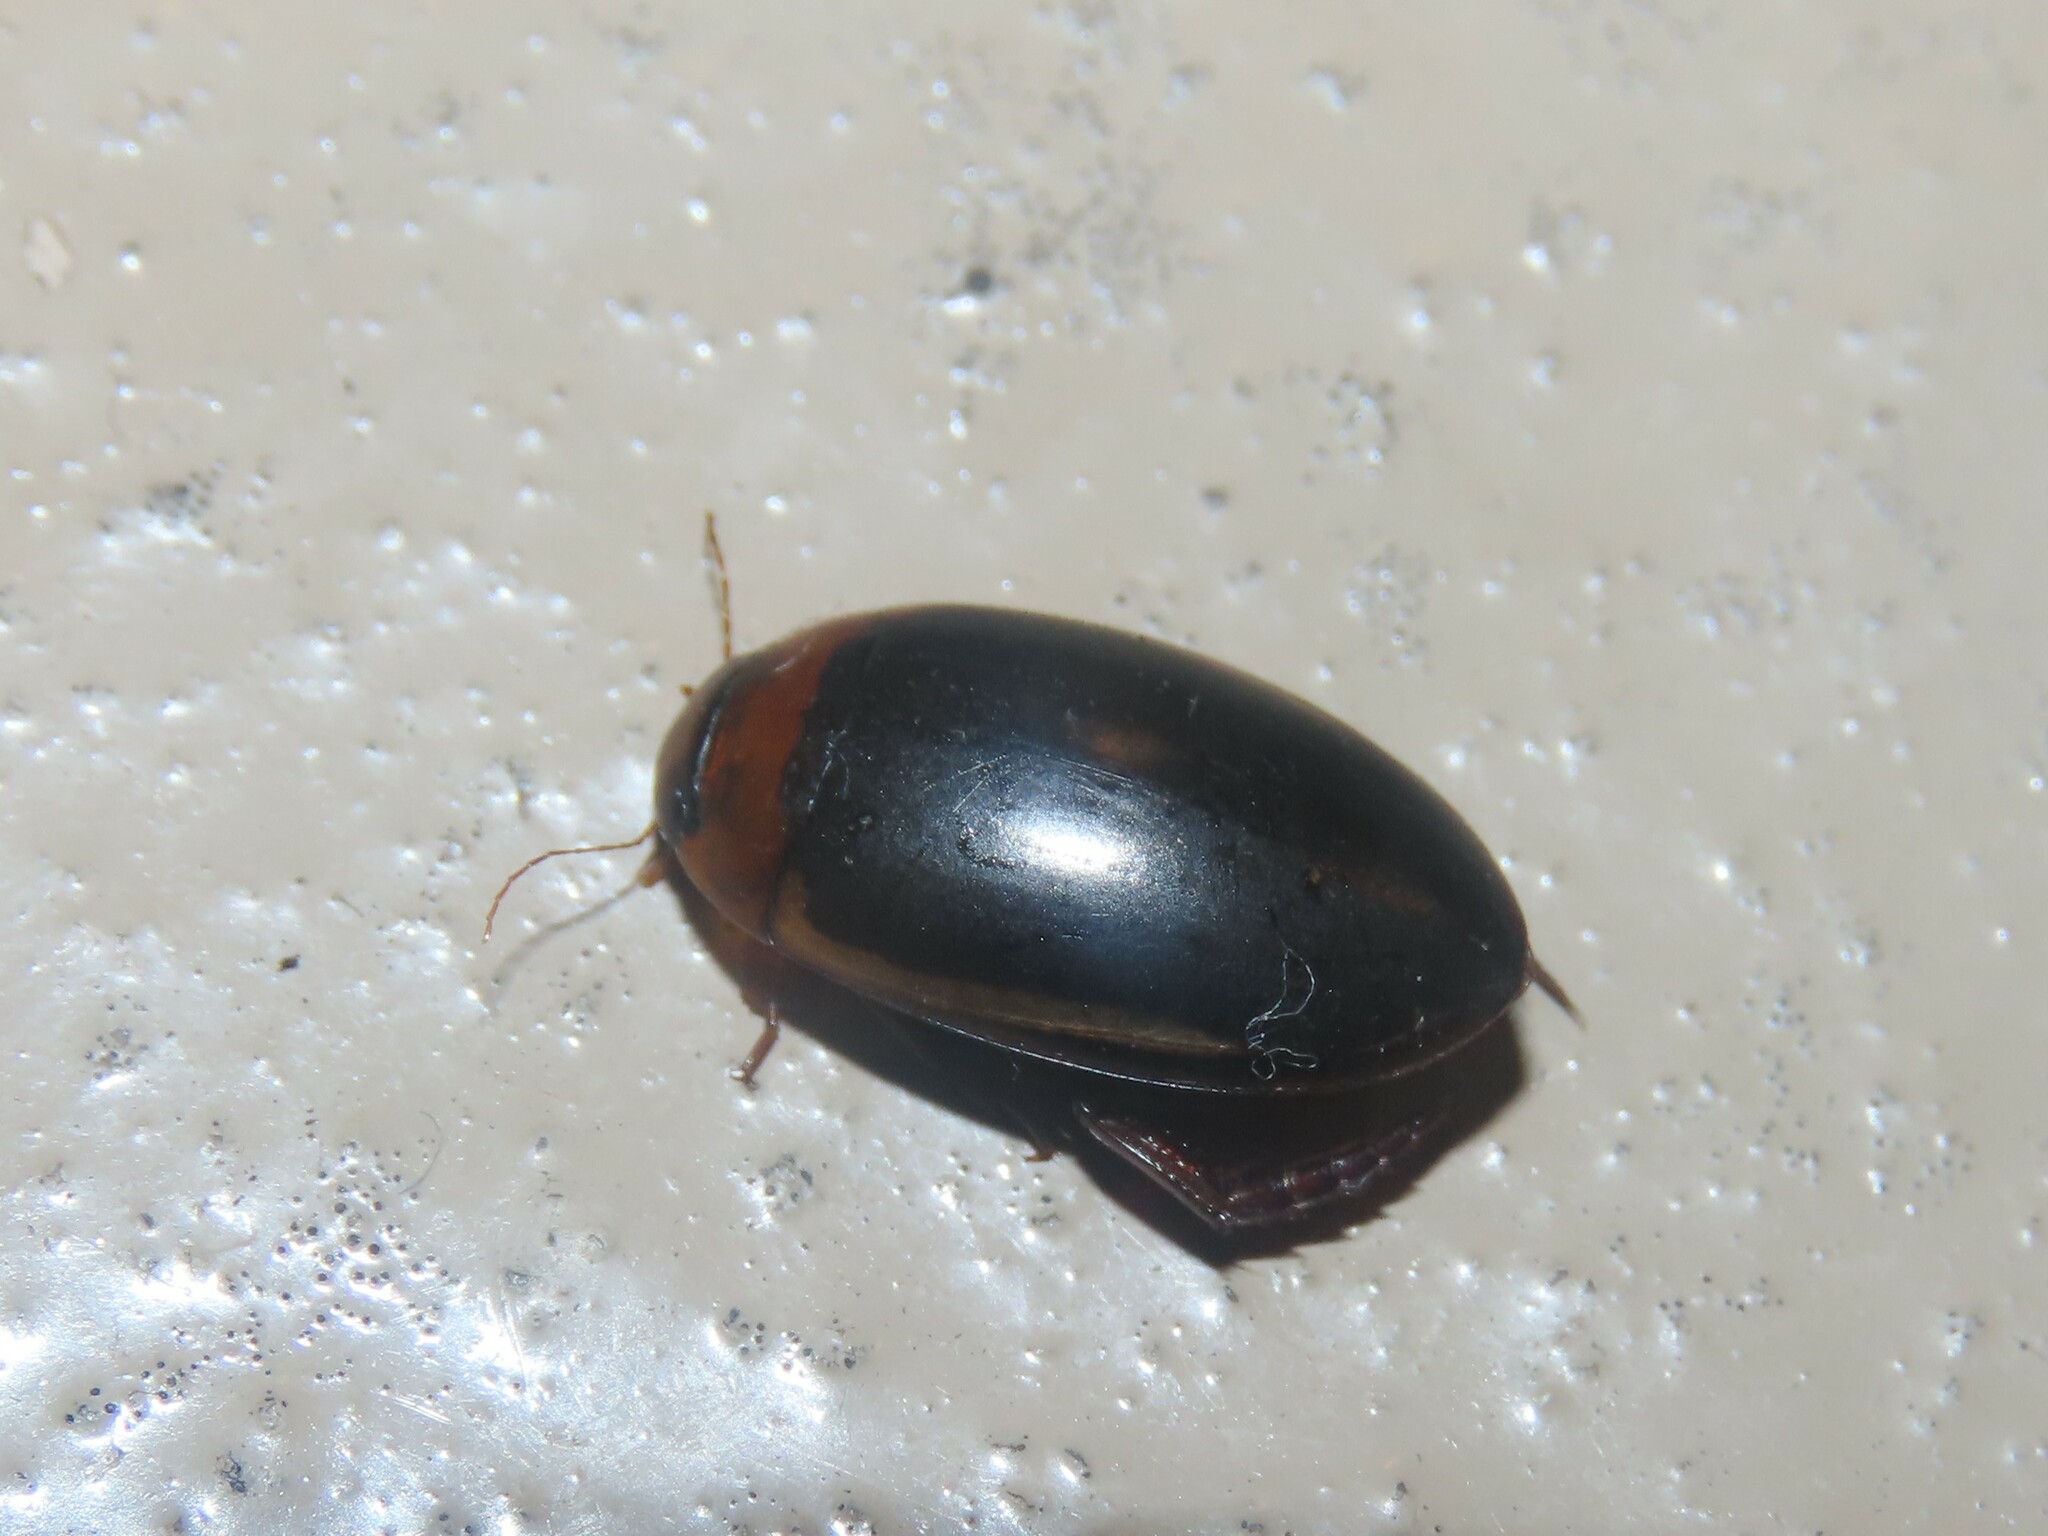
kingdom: Animalia
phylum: Arthropoda
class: Insecta
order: Coleoptera
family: Dytiscidae
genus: Hydaticus
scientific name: Hydaticus bimarginatus
